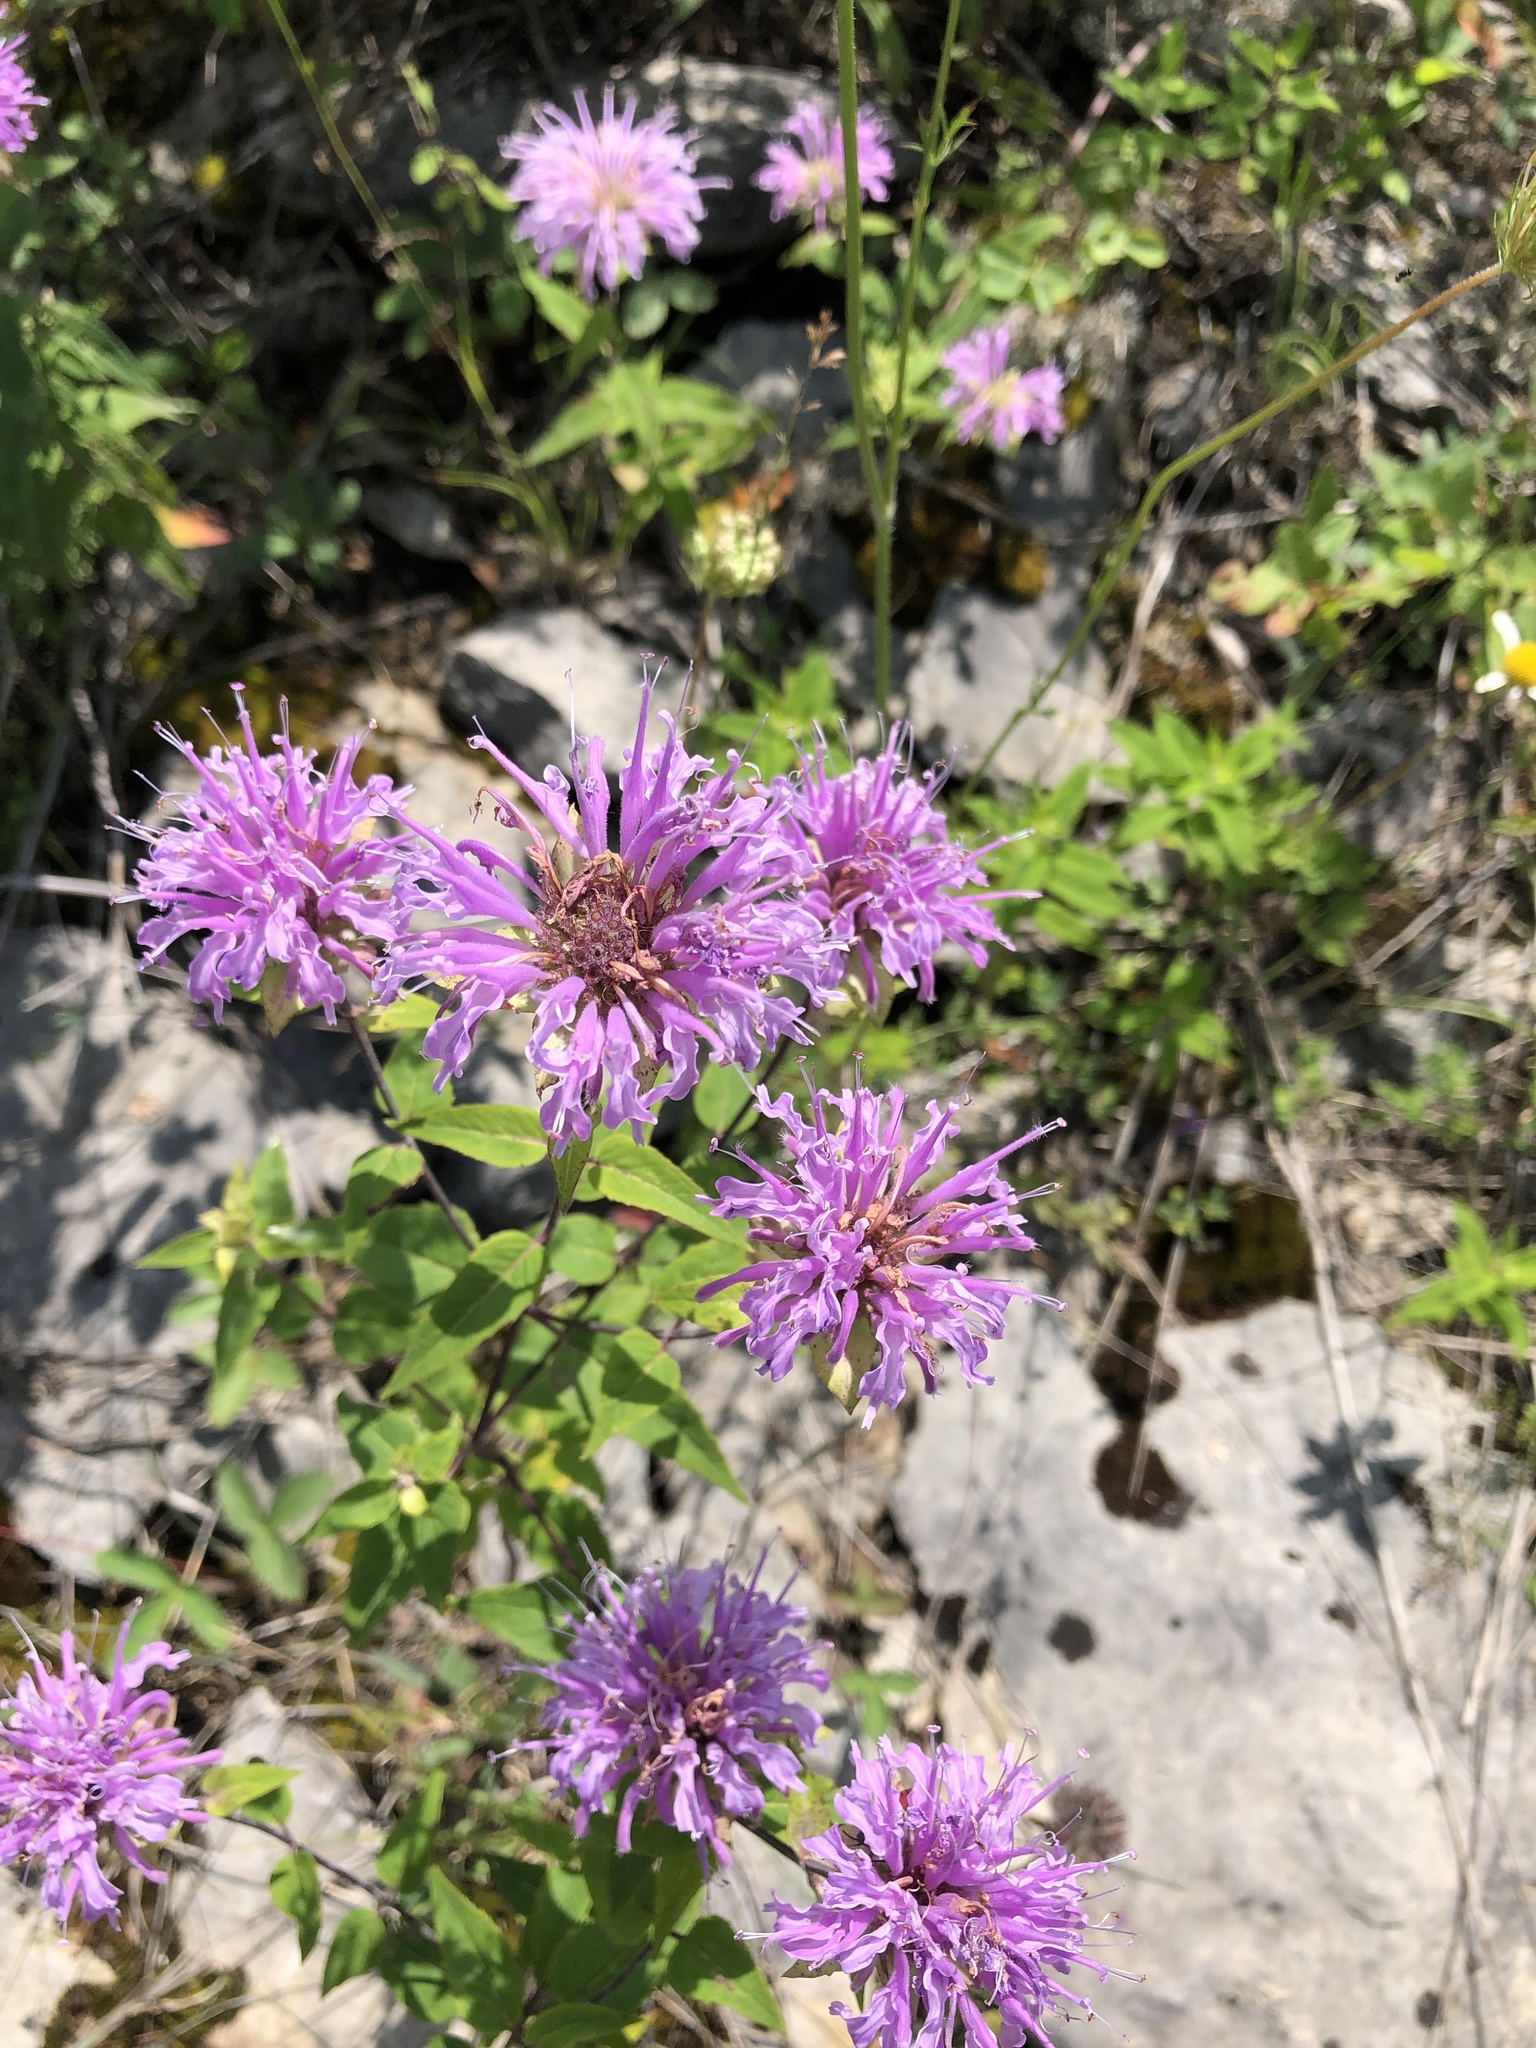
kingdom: Plantae
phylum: Tracheophyta
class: Magnoliopsida
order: Lamiales
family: Lamiaceae
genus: Monarda
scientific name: Monarda fistulosa
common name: Purple beebalm
